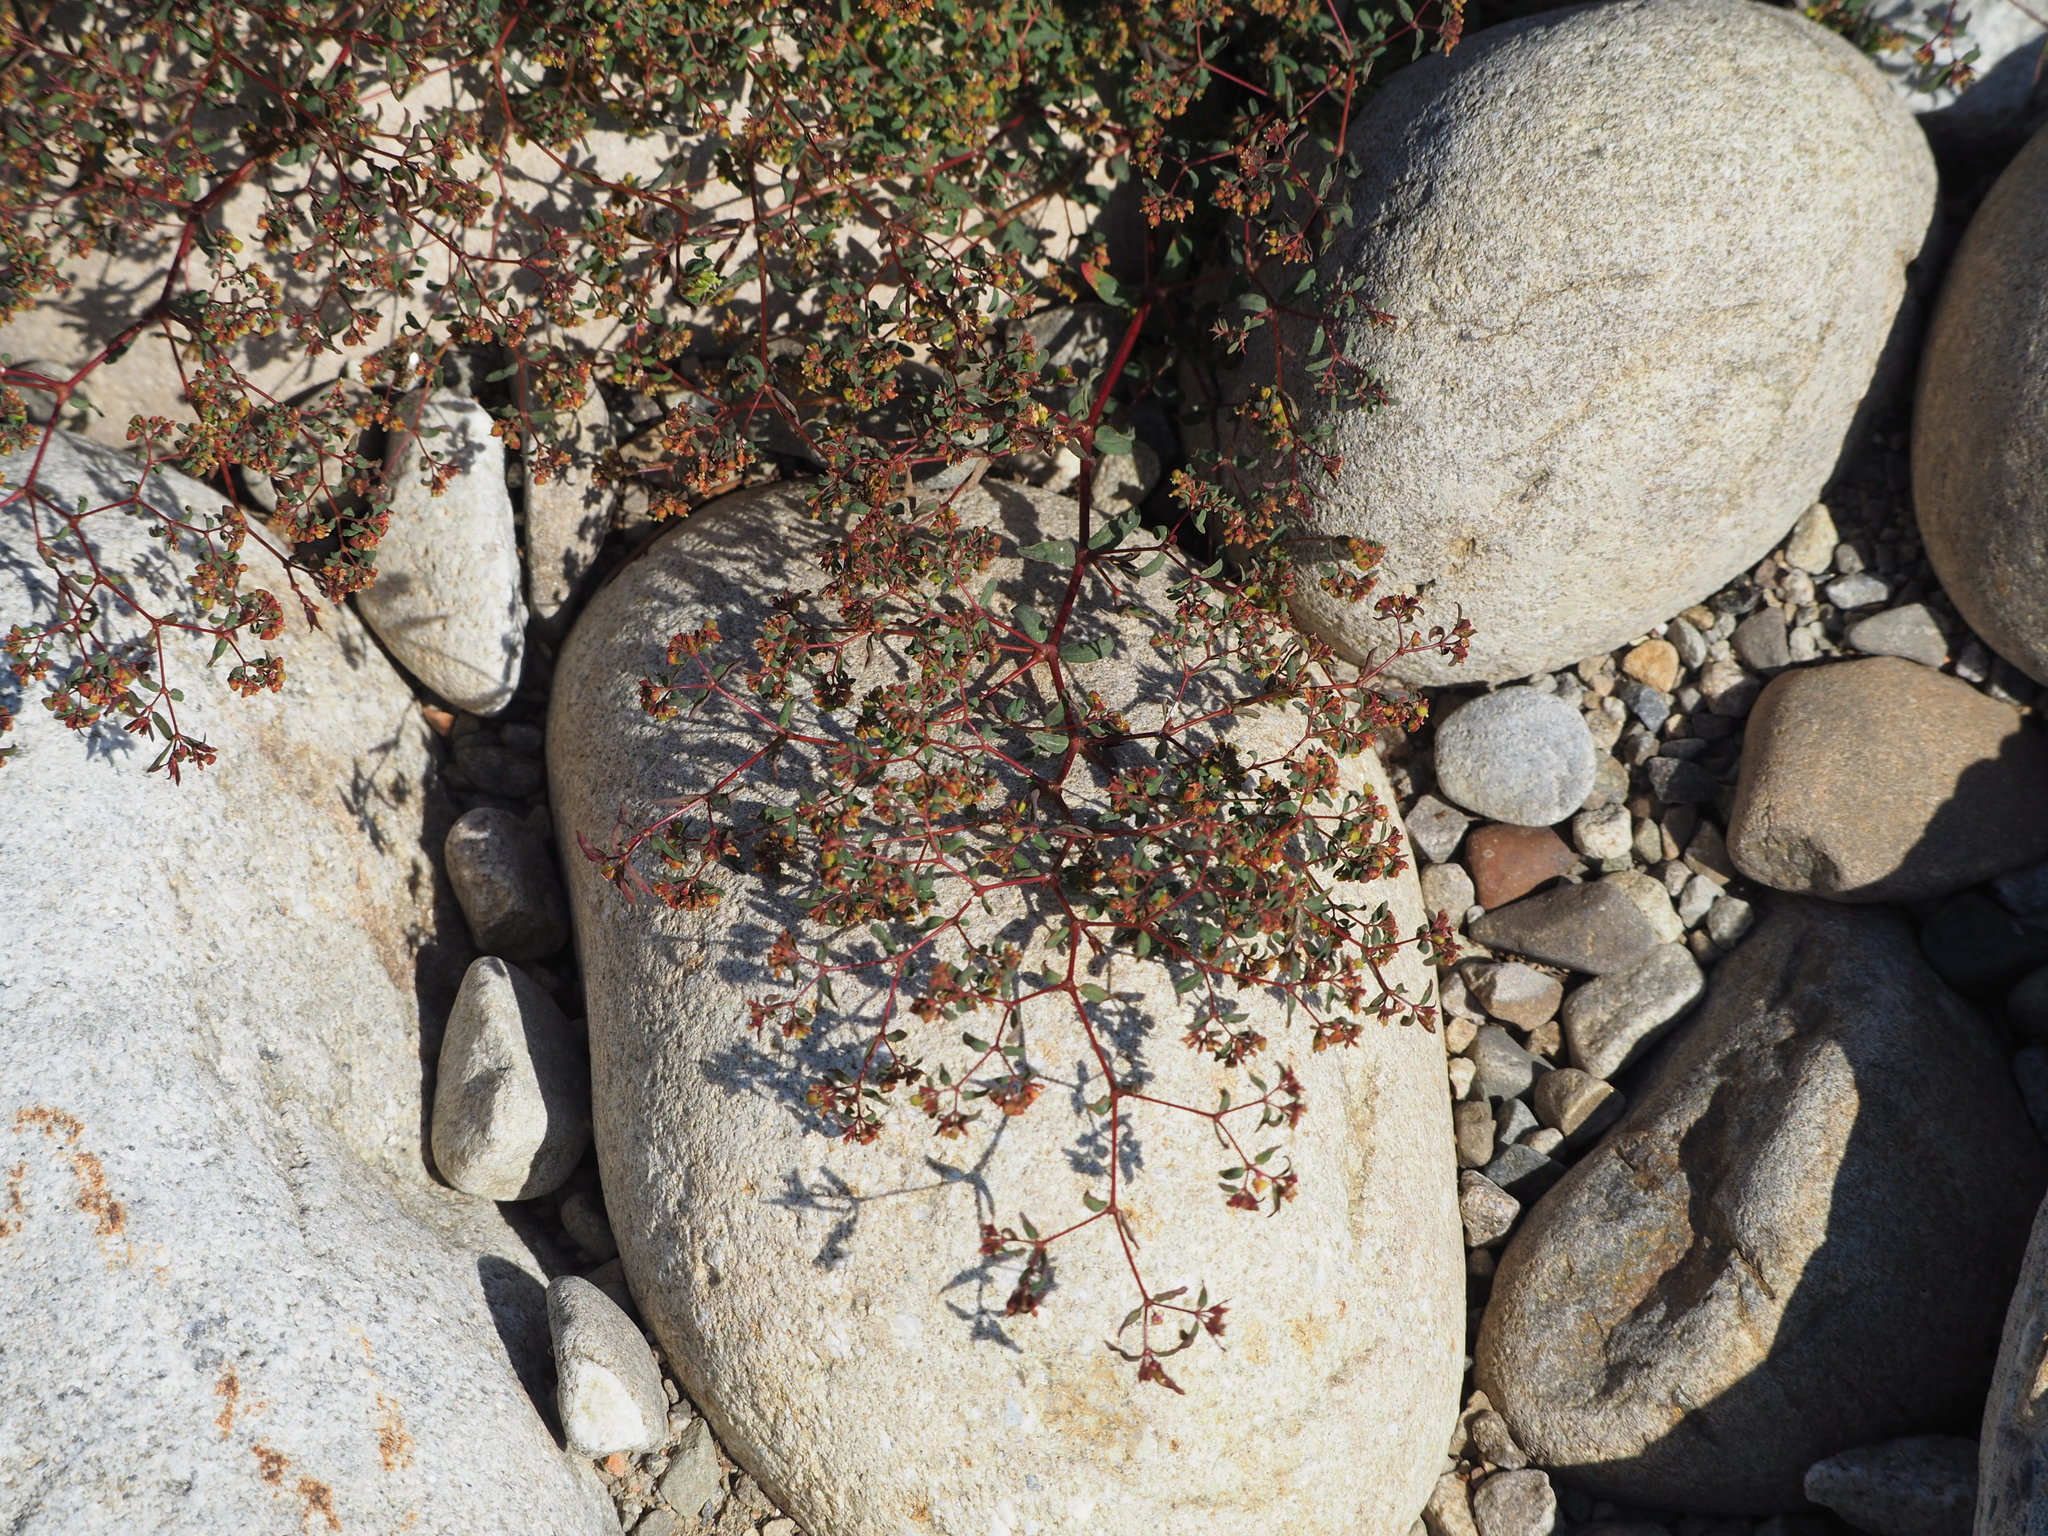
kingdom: Plantae
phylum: Tracheophyta
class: Magnoliopsida
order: Malpighiales
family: Euphorbiaceae
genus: Euphorbia
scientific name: Euphorbia hyssopifolia
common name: Hyssopleaf sandmat
